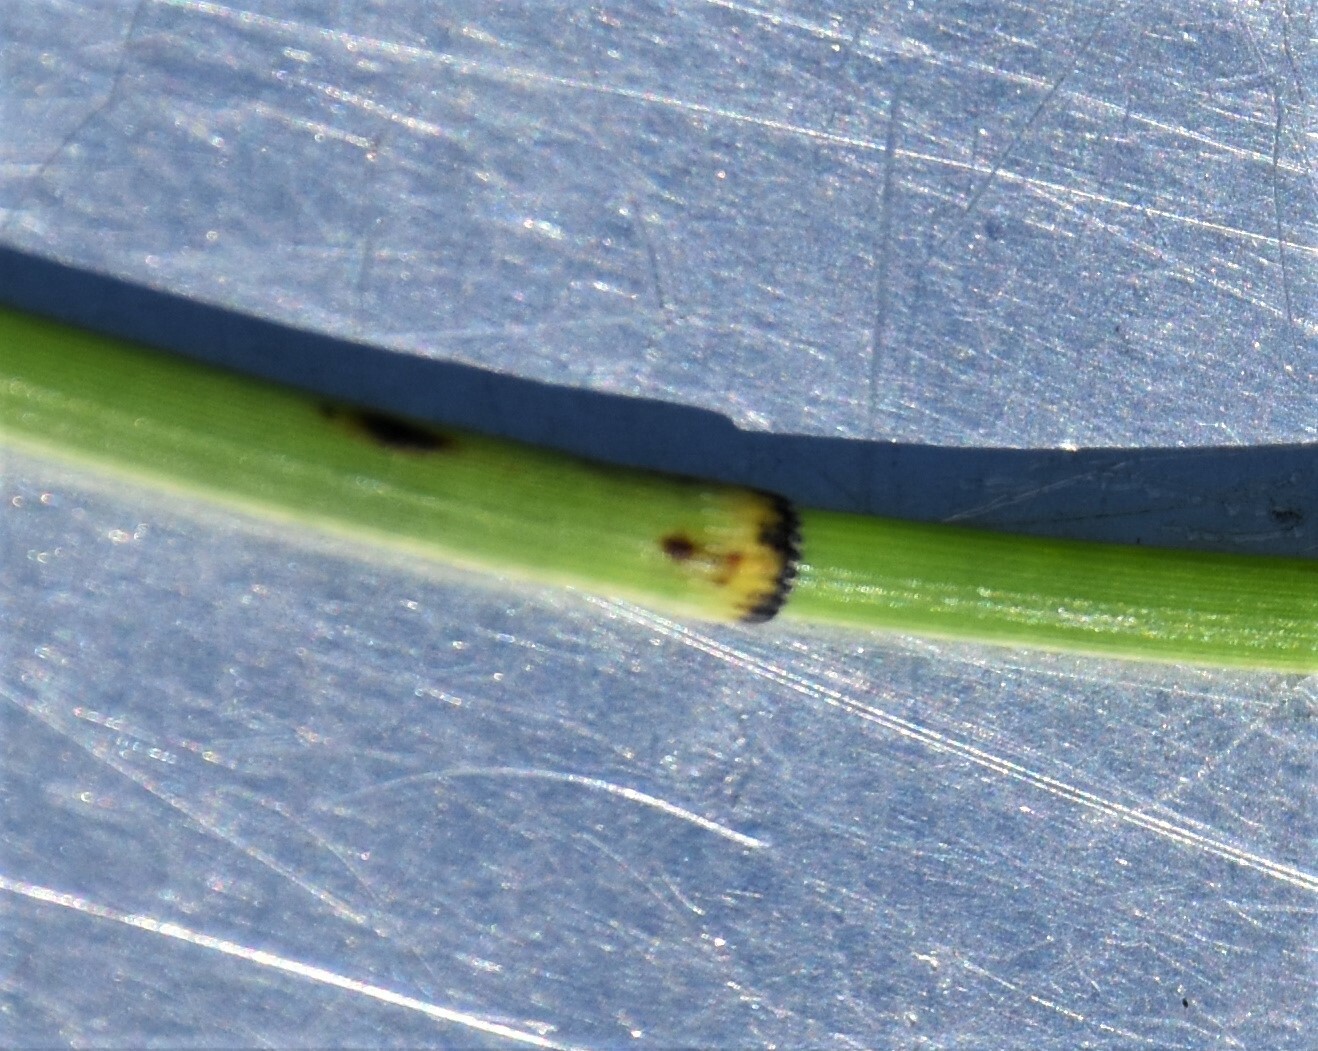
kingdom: Plantae
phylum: Tracheophyta
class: Polypodiopsida
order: Equisetales
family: Equisetaceae
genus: Equisetum
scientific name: Equisetum laevigatum
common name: Smooth scouring-rush
